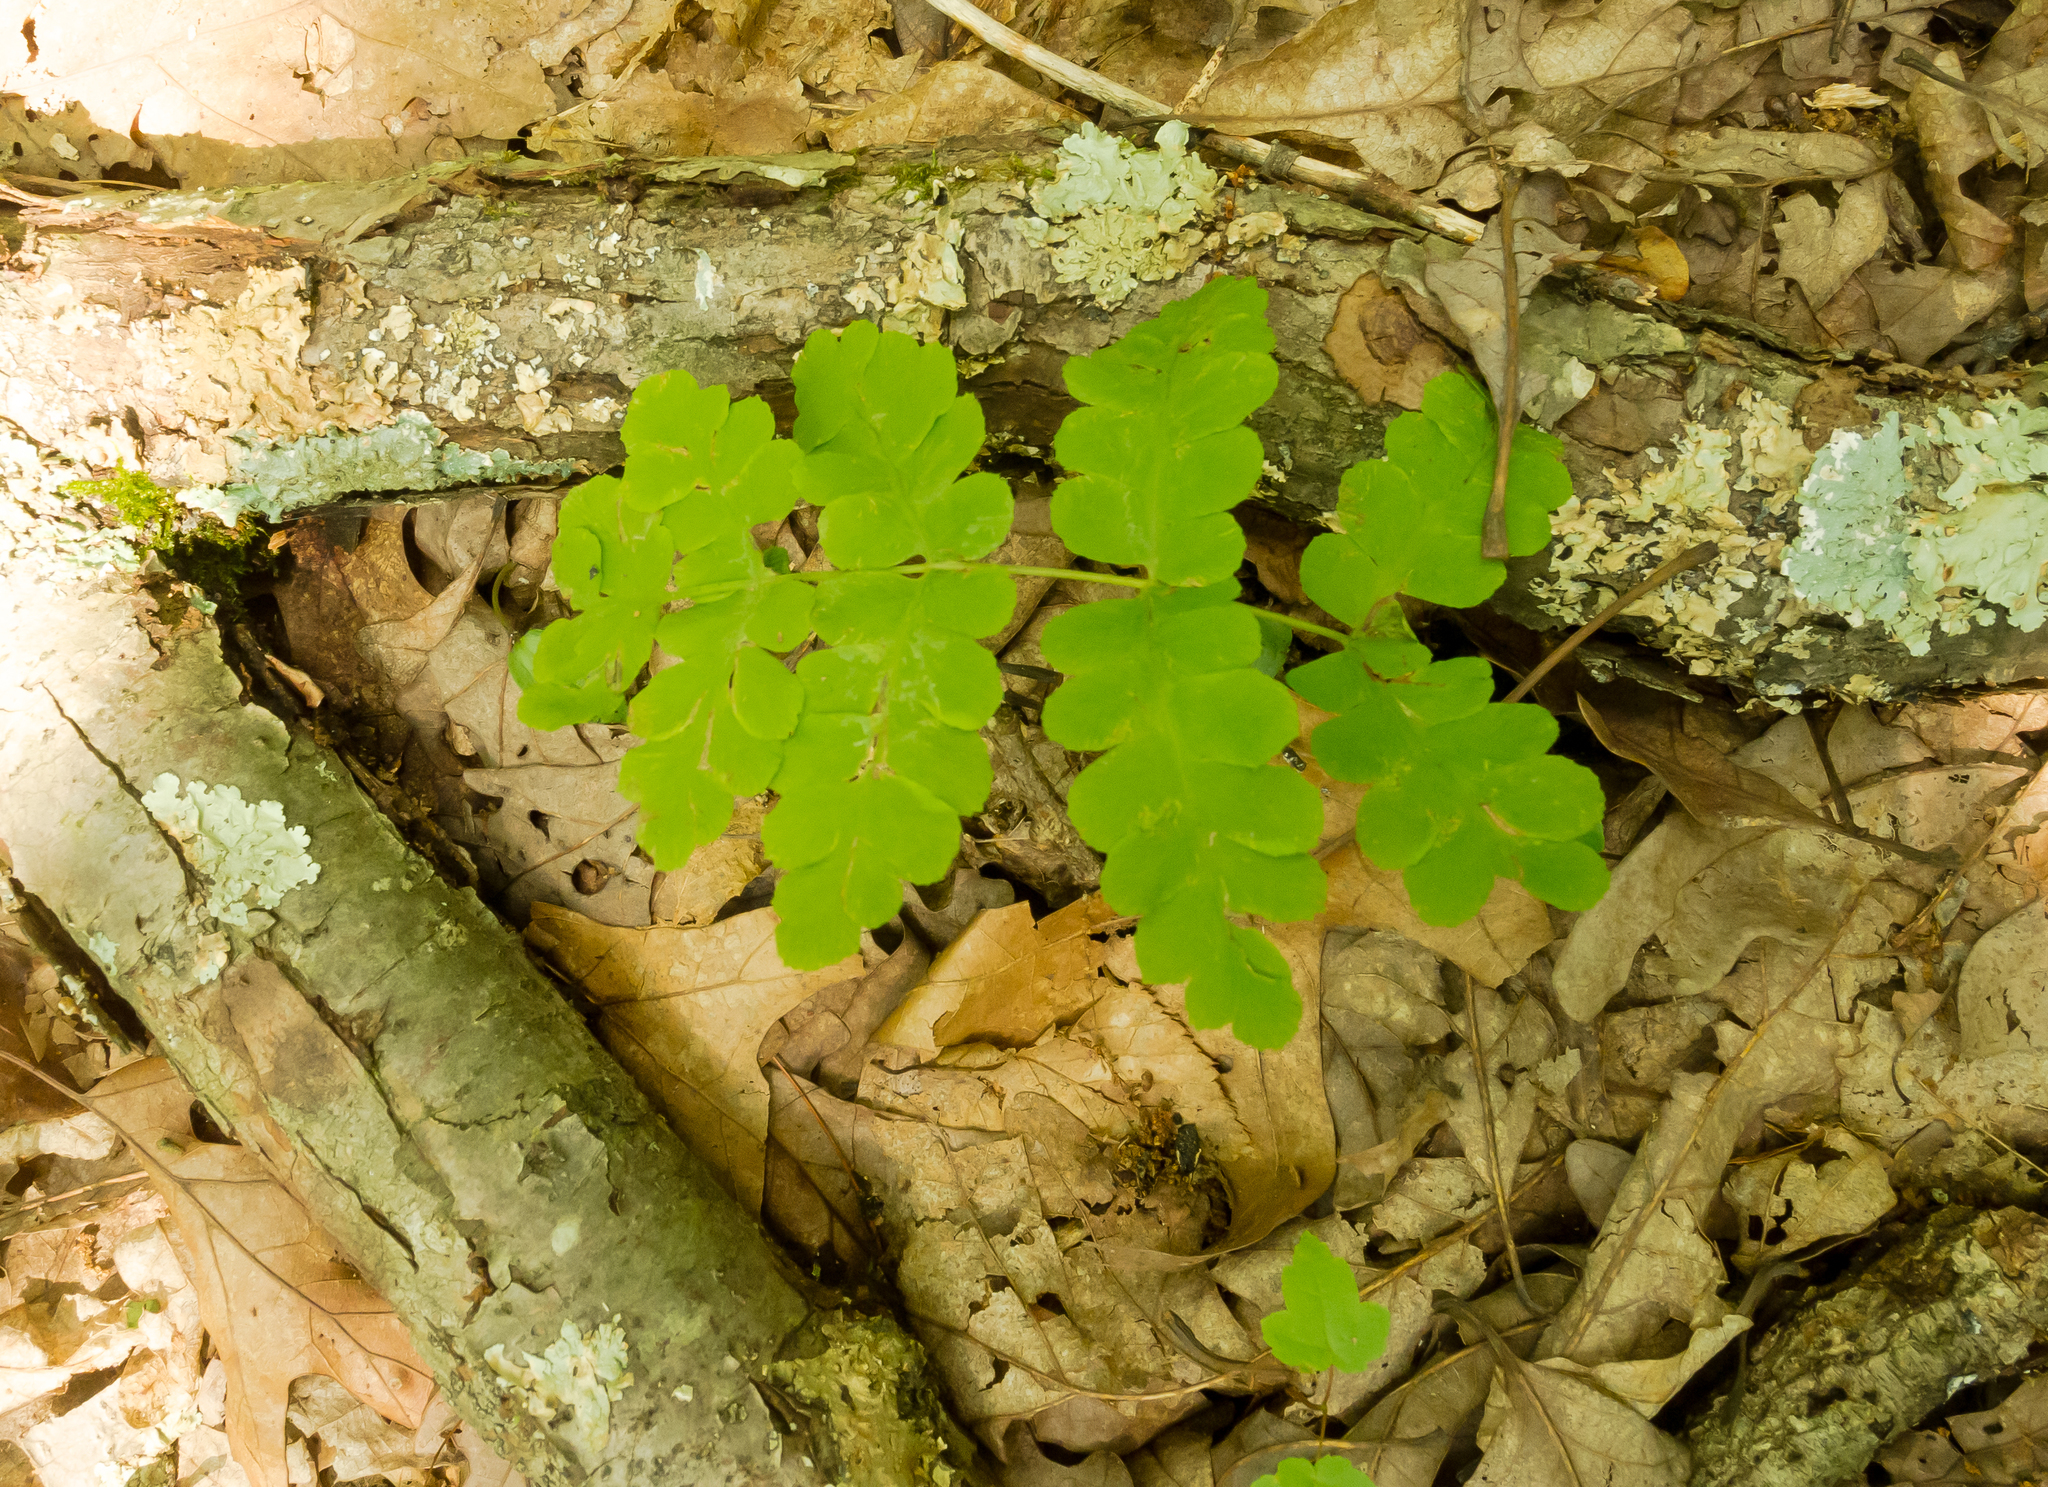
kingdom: Plantae
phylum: Tracheophyta
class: Polypodiopsida
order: Osmundales
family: Osmundaceae
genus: Claytosmunda
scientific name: Claytosmunda claytoniana
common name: Clayton's fern
